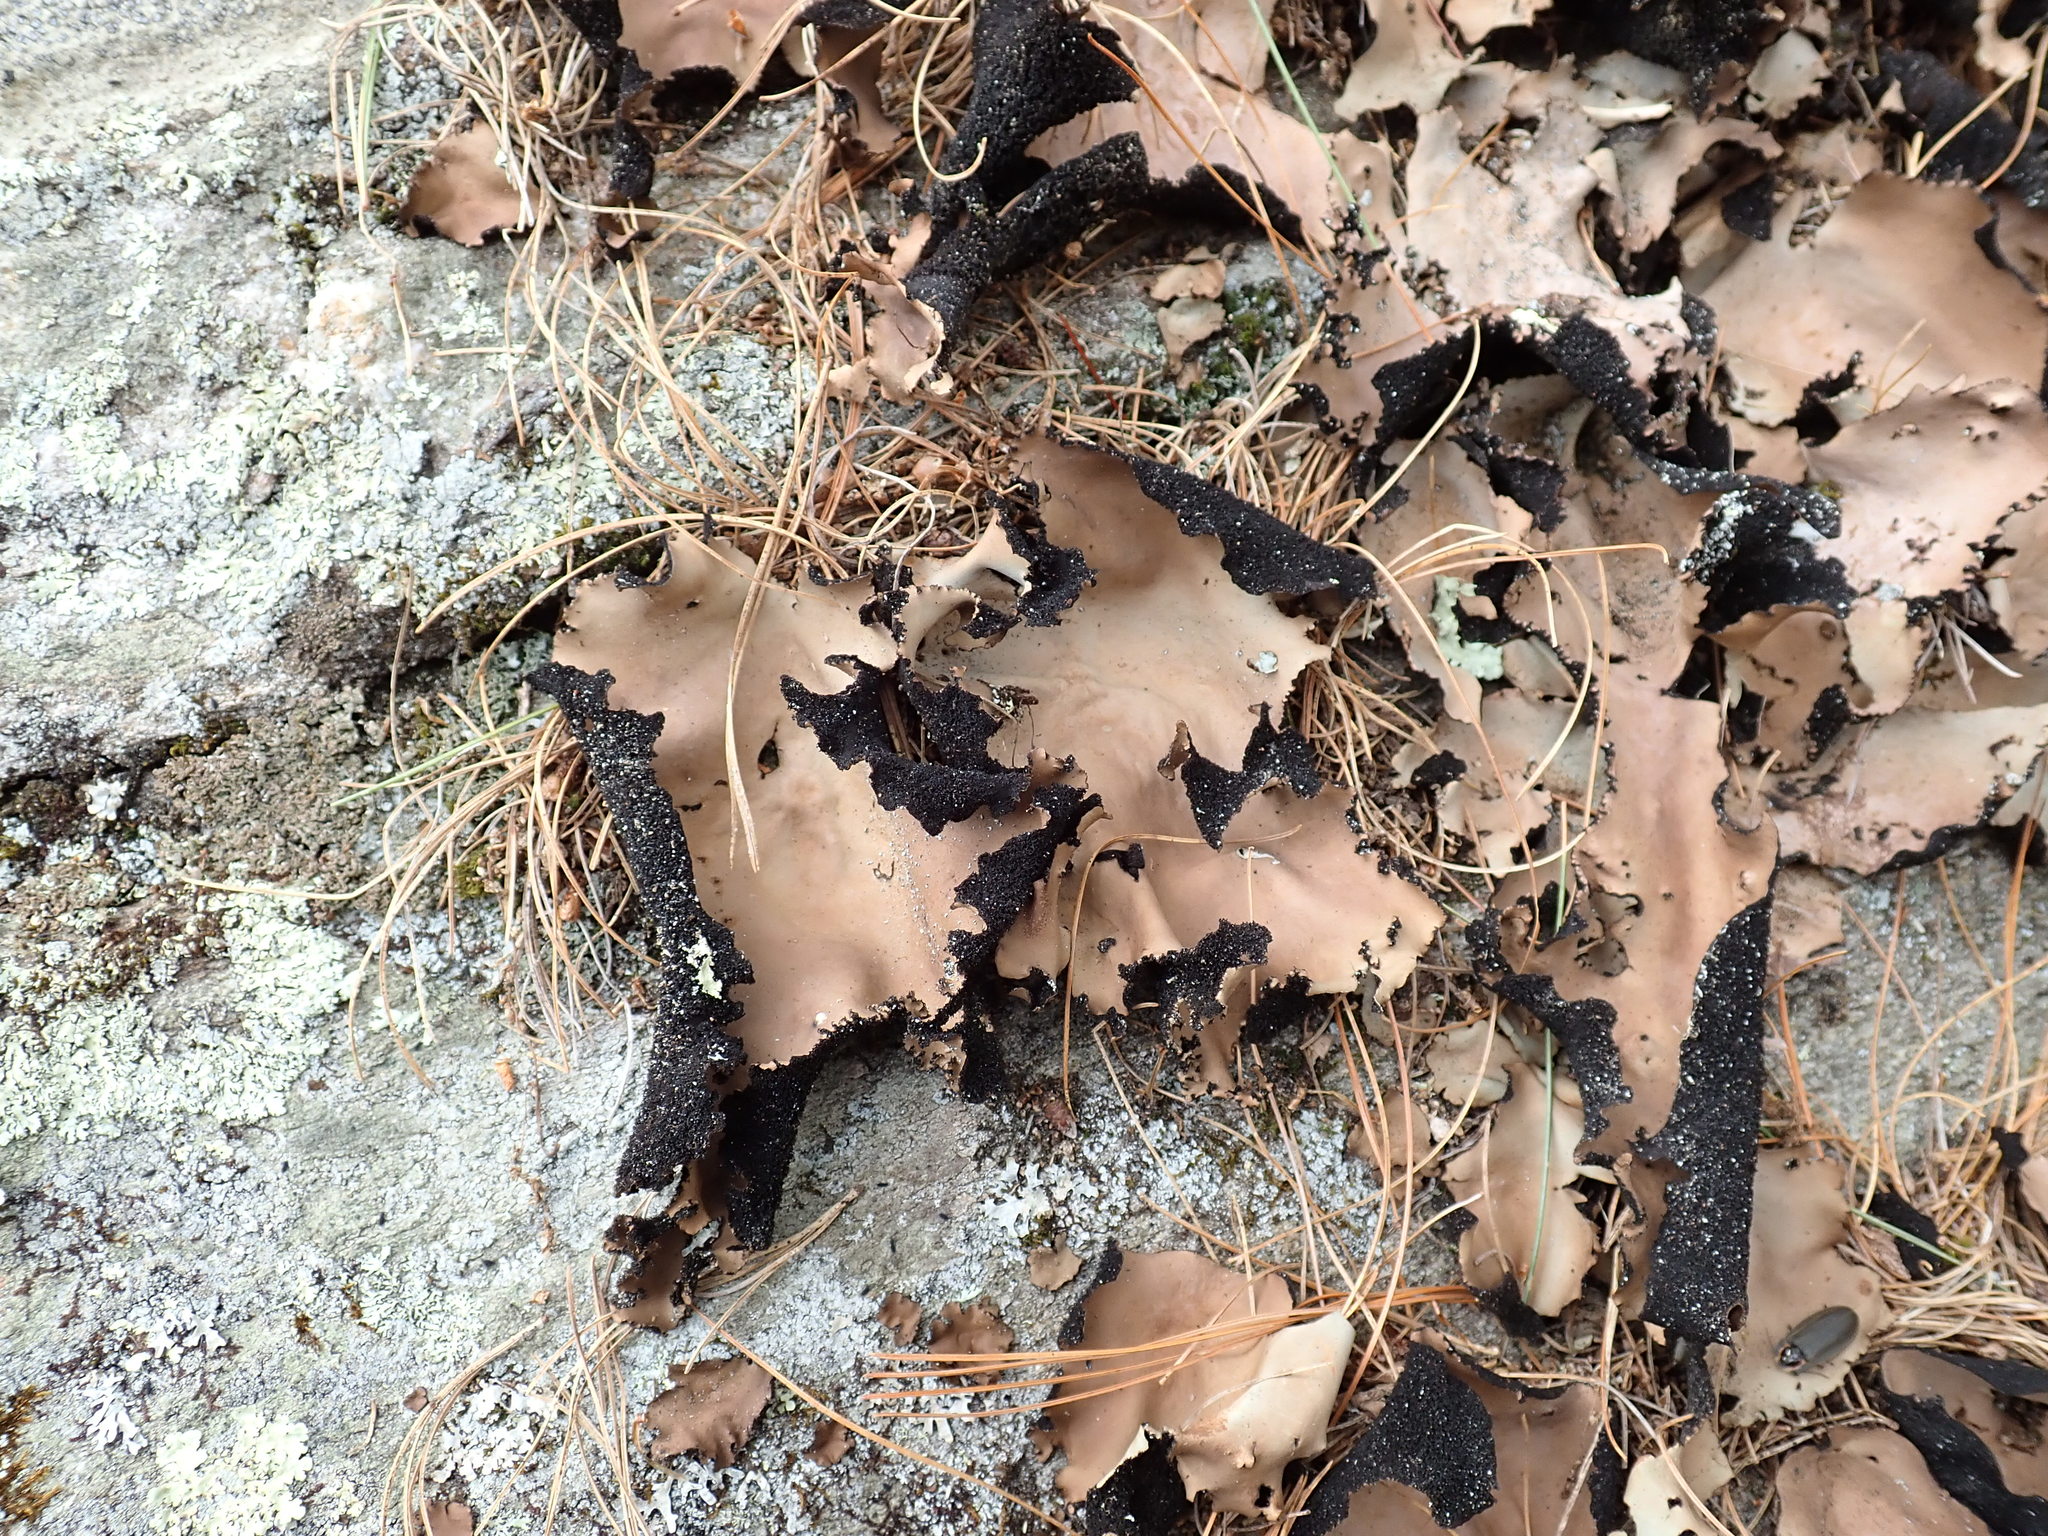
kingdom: Fungi
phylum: Ascomycota
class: Lecanoromycetes
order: Umbilicariales
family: Umbilicariaceae
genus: Umbilicaria
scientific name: Umbilicaria mammulata
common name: Smooth rock tripe
